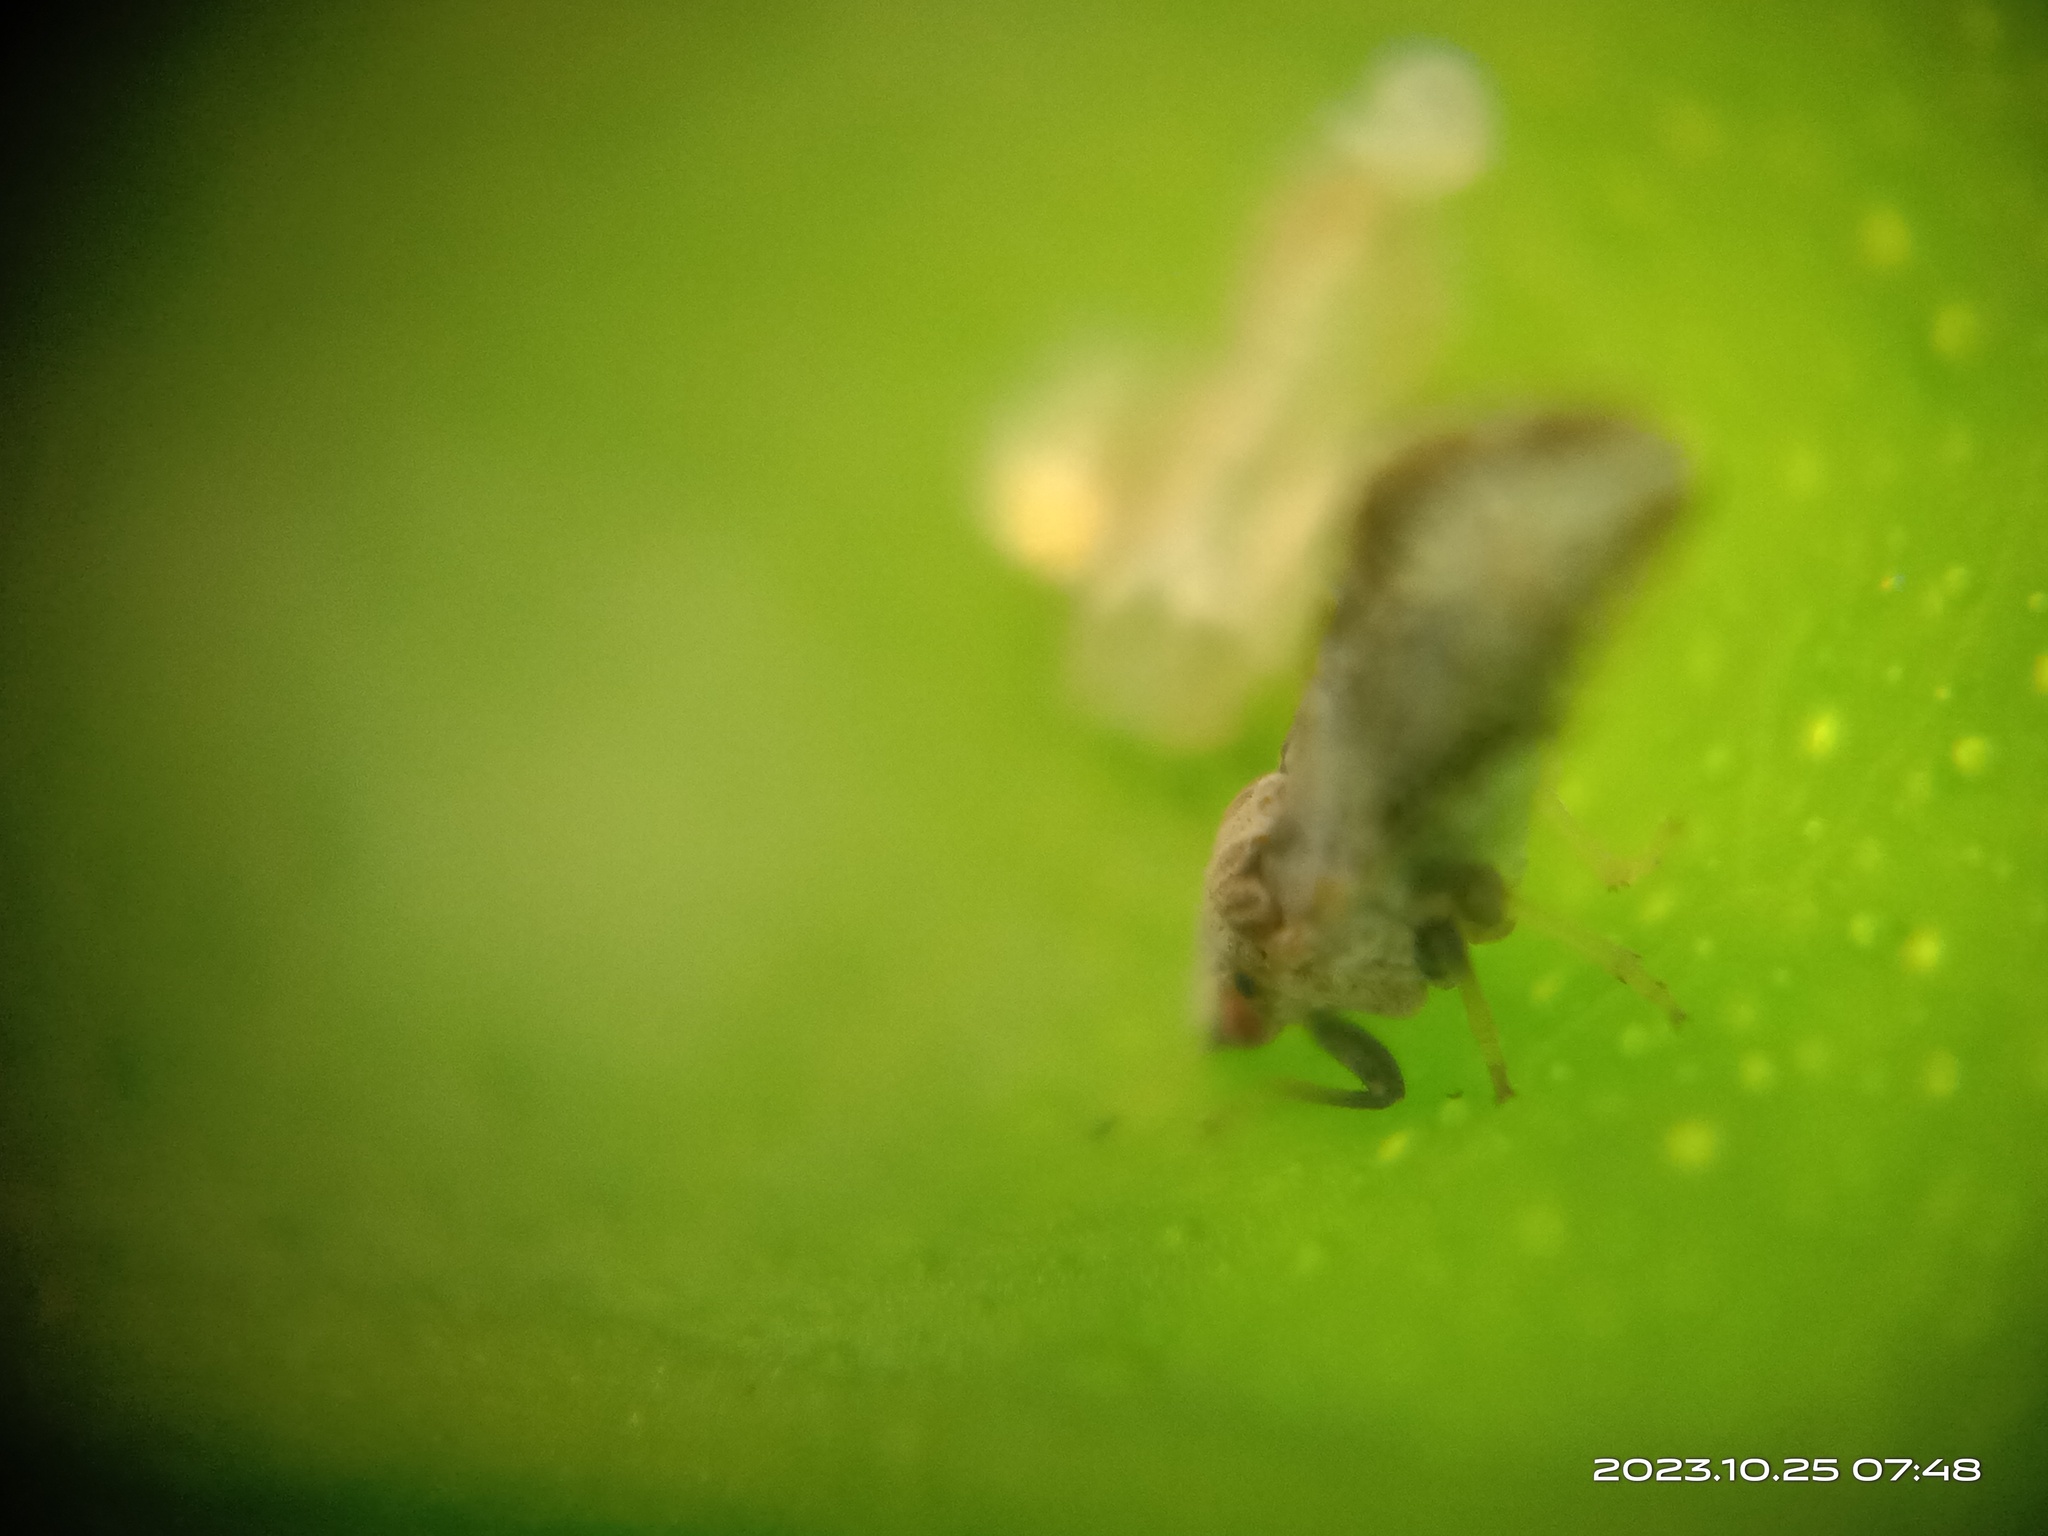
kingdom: Animalia
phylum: Arthropoda
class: Insecta
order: Hemiptera
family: Liviidae
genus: Diaphorina
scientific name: Diaphorina citri
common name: Asian citrus psyllid
